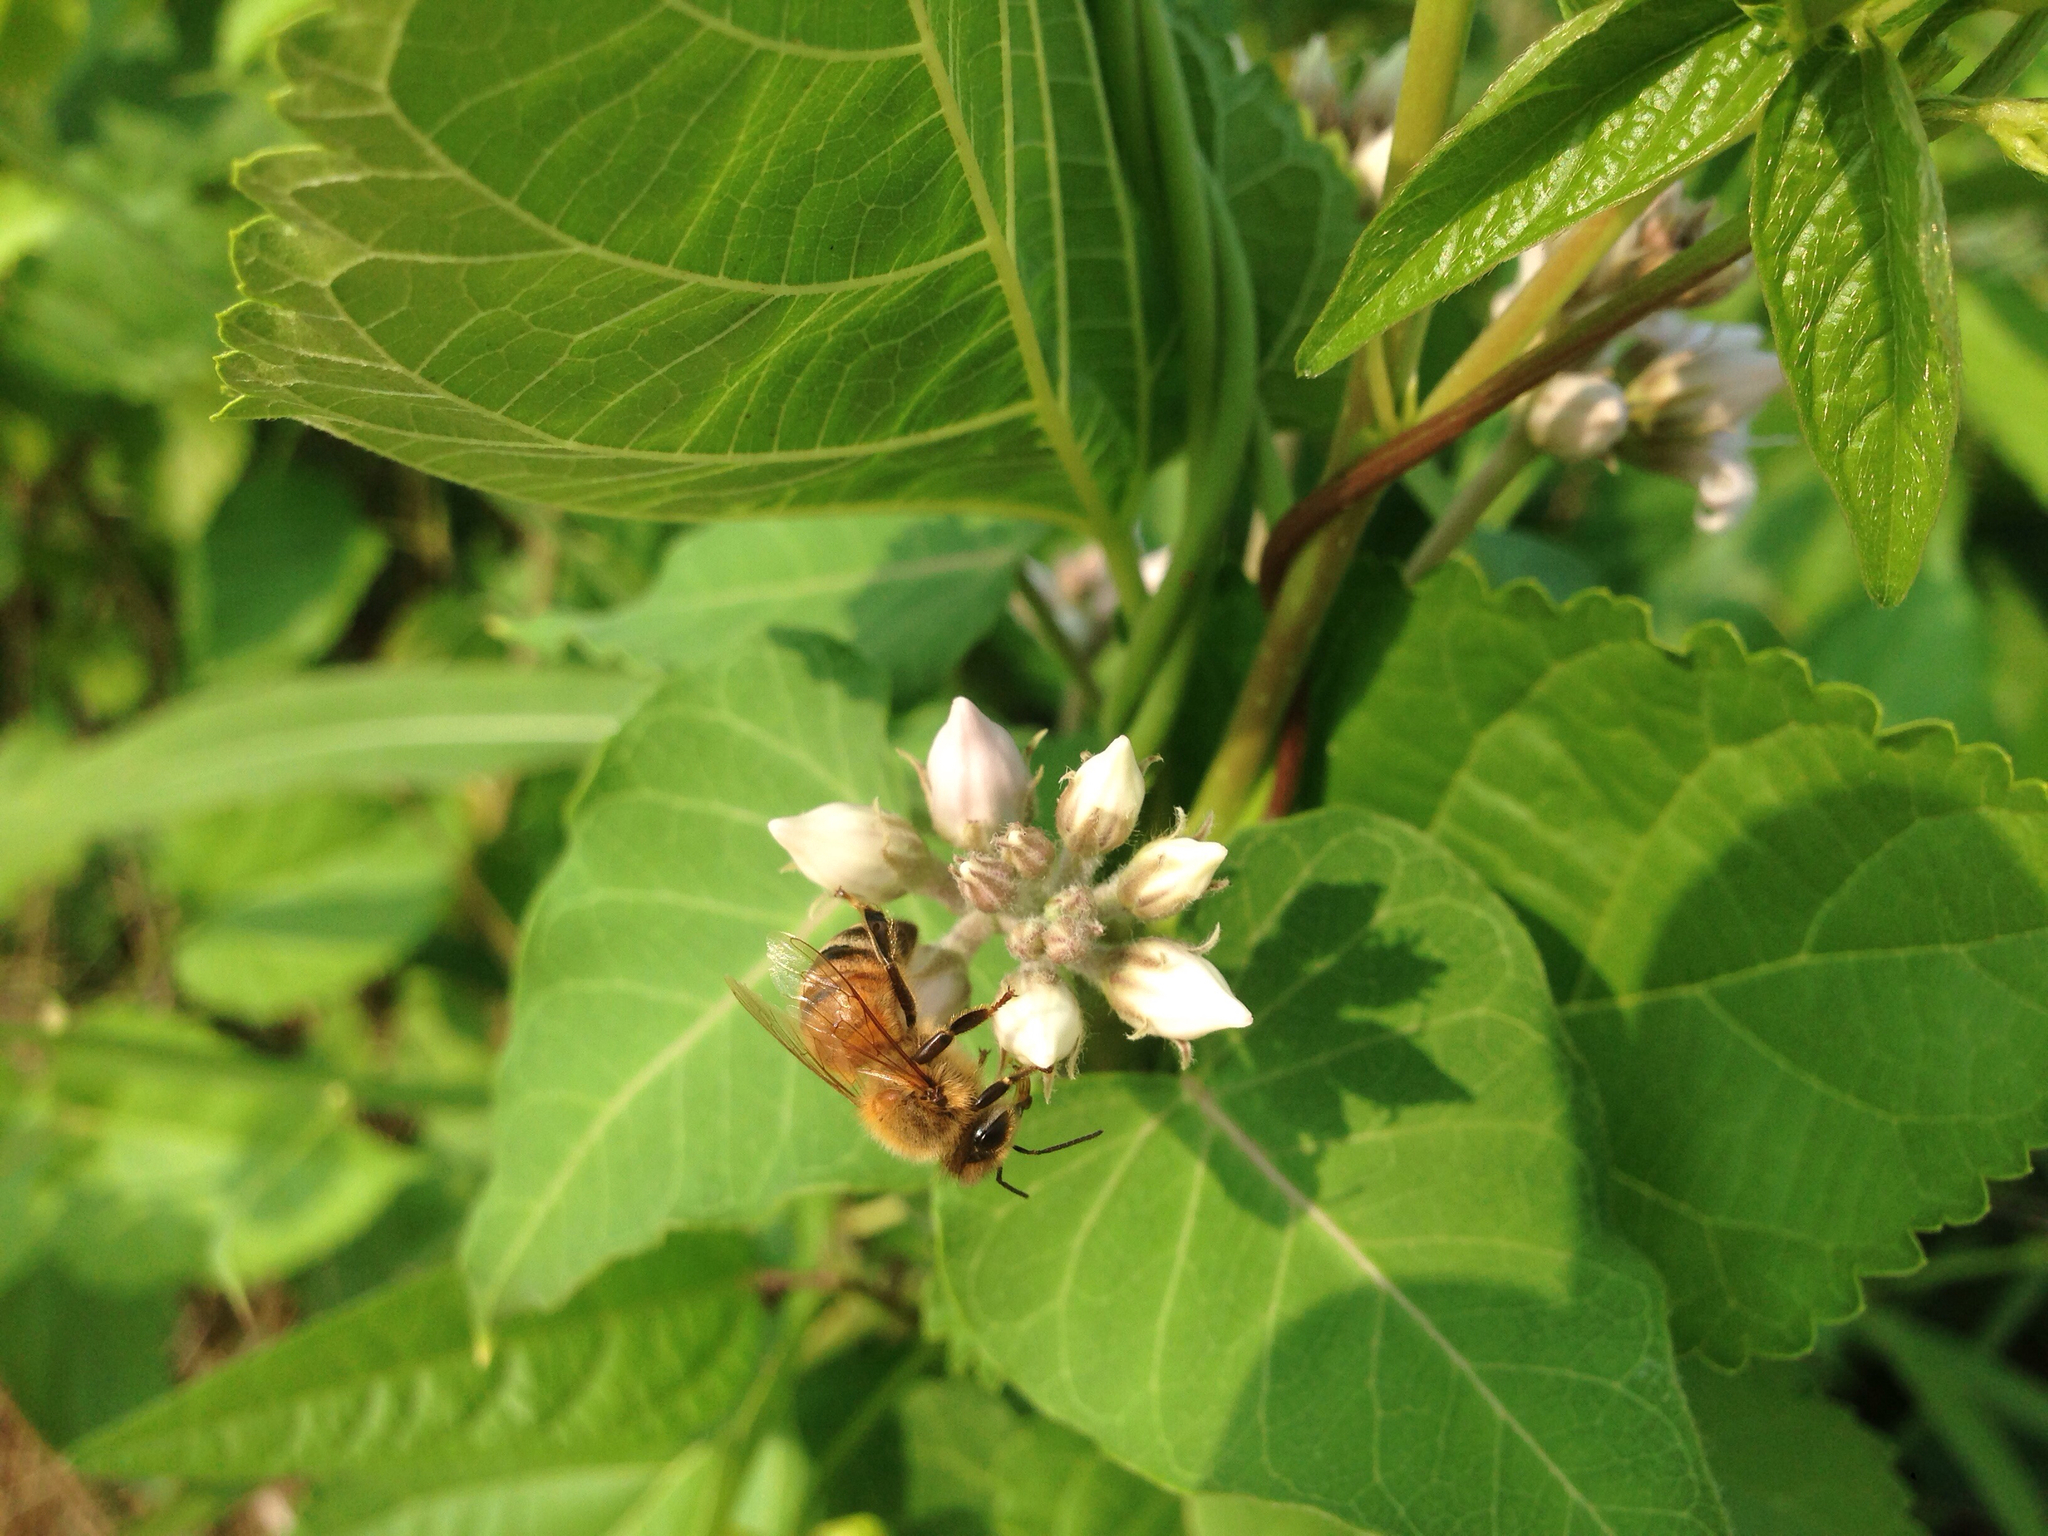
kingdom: Animalia
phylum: Arthropoda
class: Insecta
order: Hymenoptera
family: Apidae
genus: Apis
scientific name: Apis mellifera
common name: Honey bee
